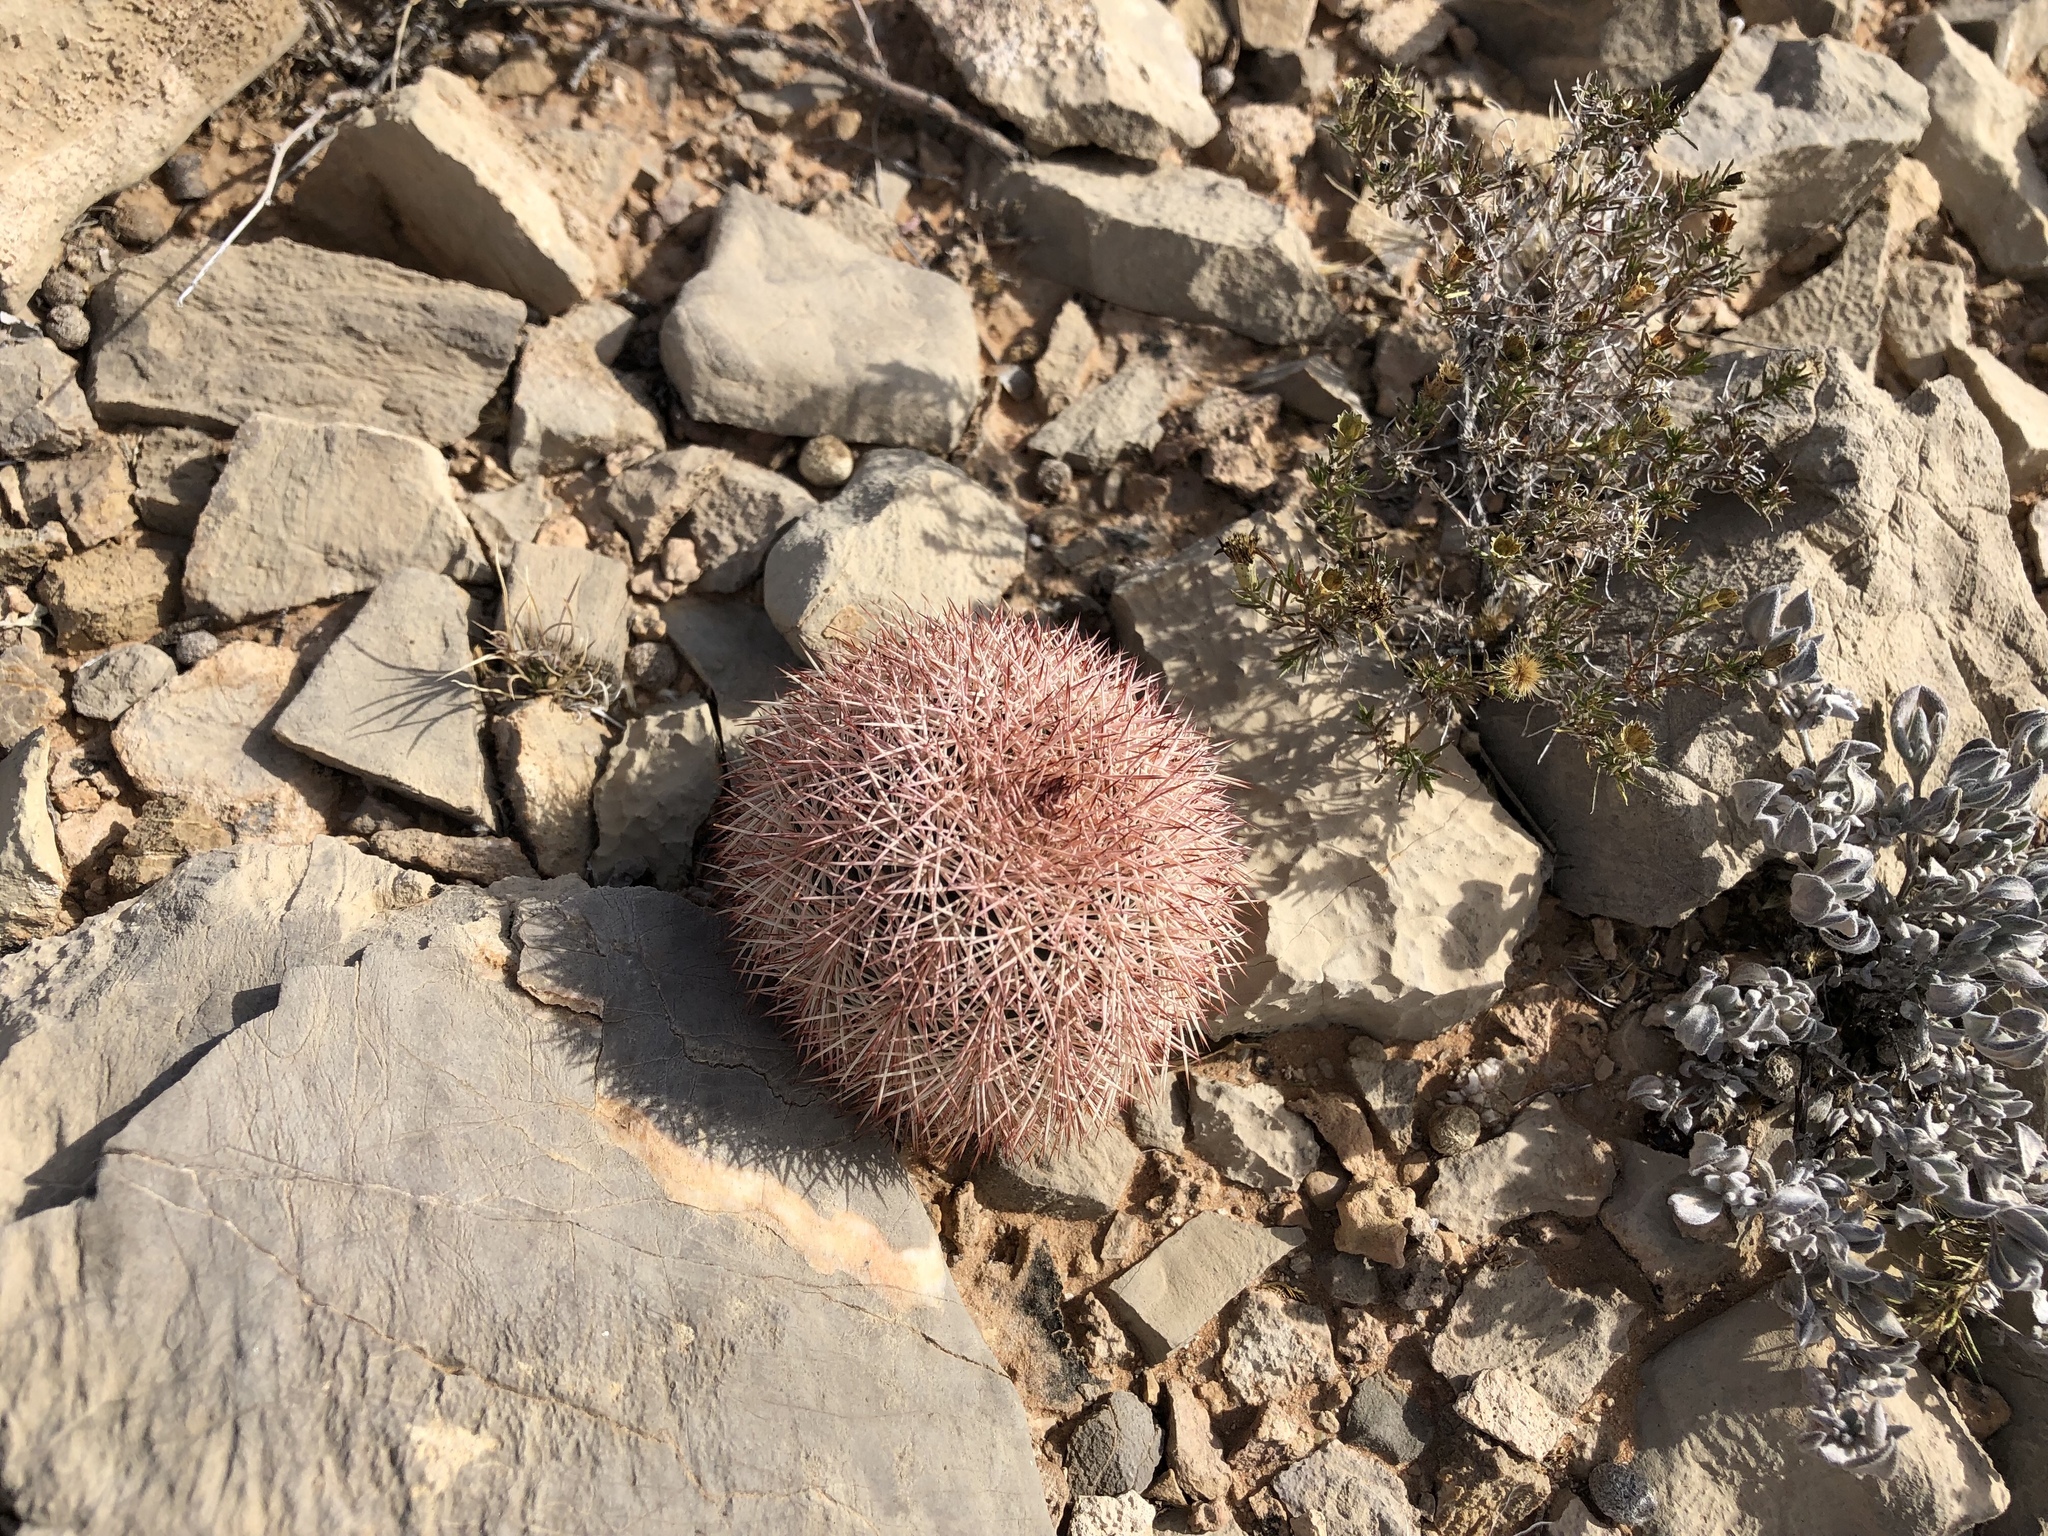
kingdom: Plantae
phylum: Tracheophyta
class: Magnoliopsida
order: Caryophyllales
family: Cactaceae
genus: Echinocereus
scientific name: Echinocereus dasyacanthus
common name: Spiny hedgehog cactus
